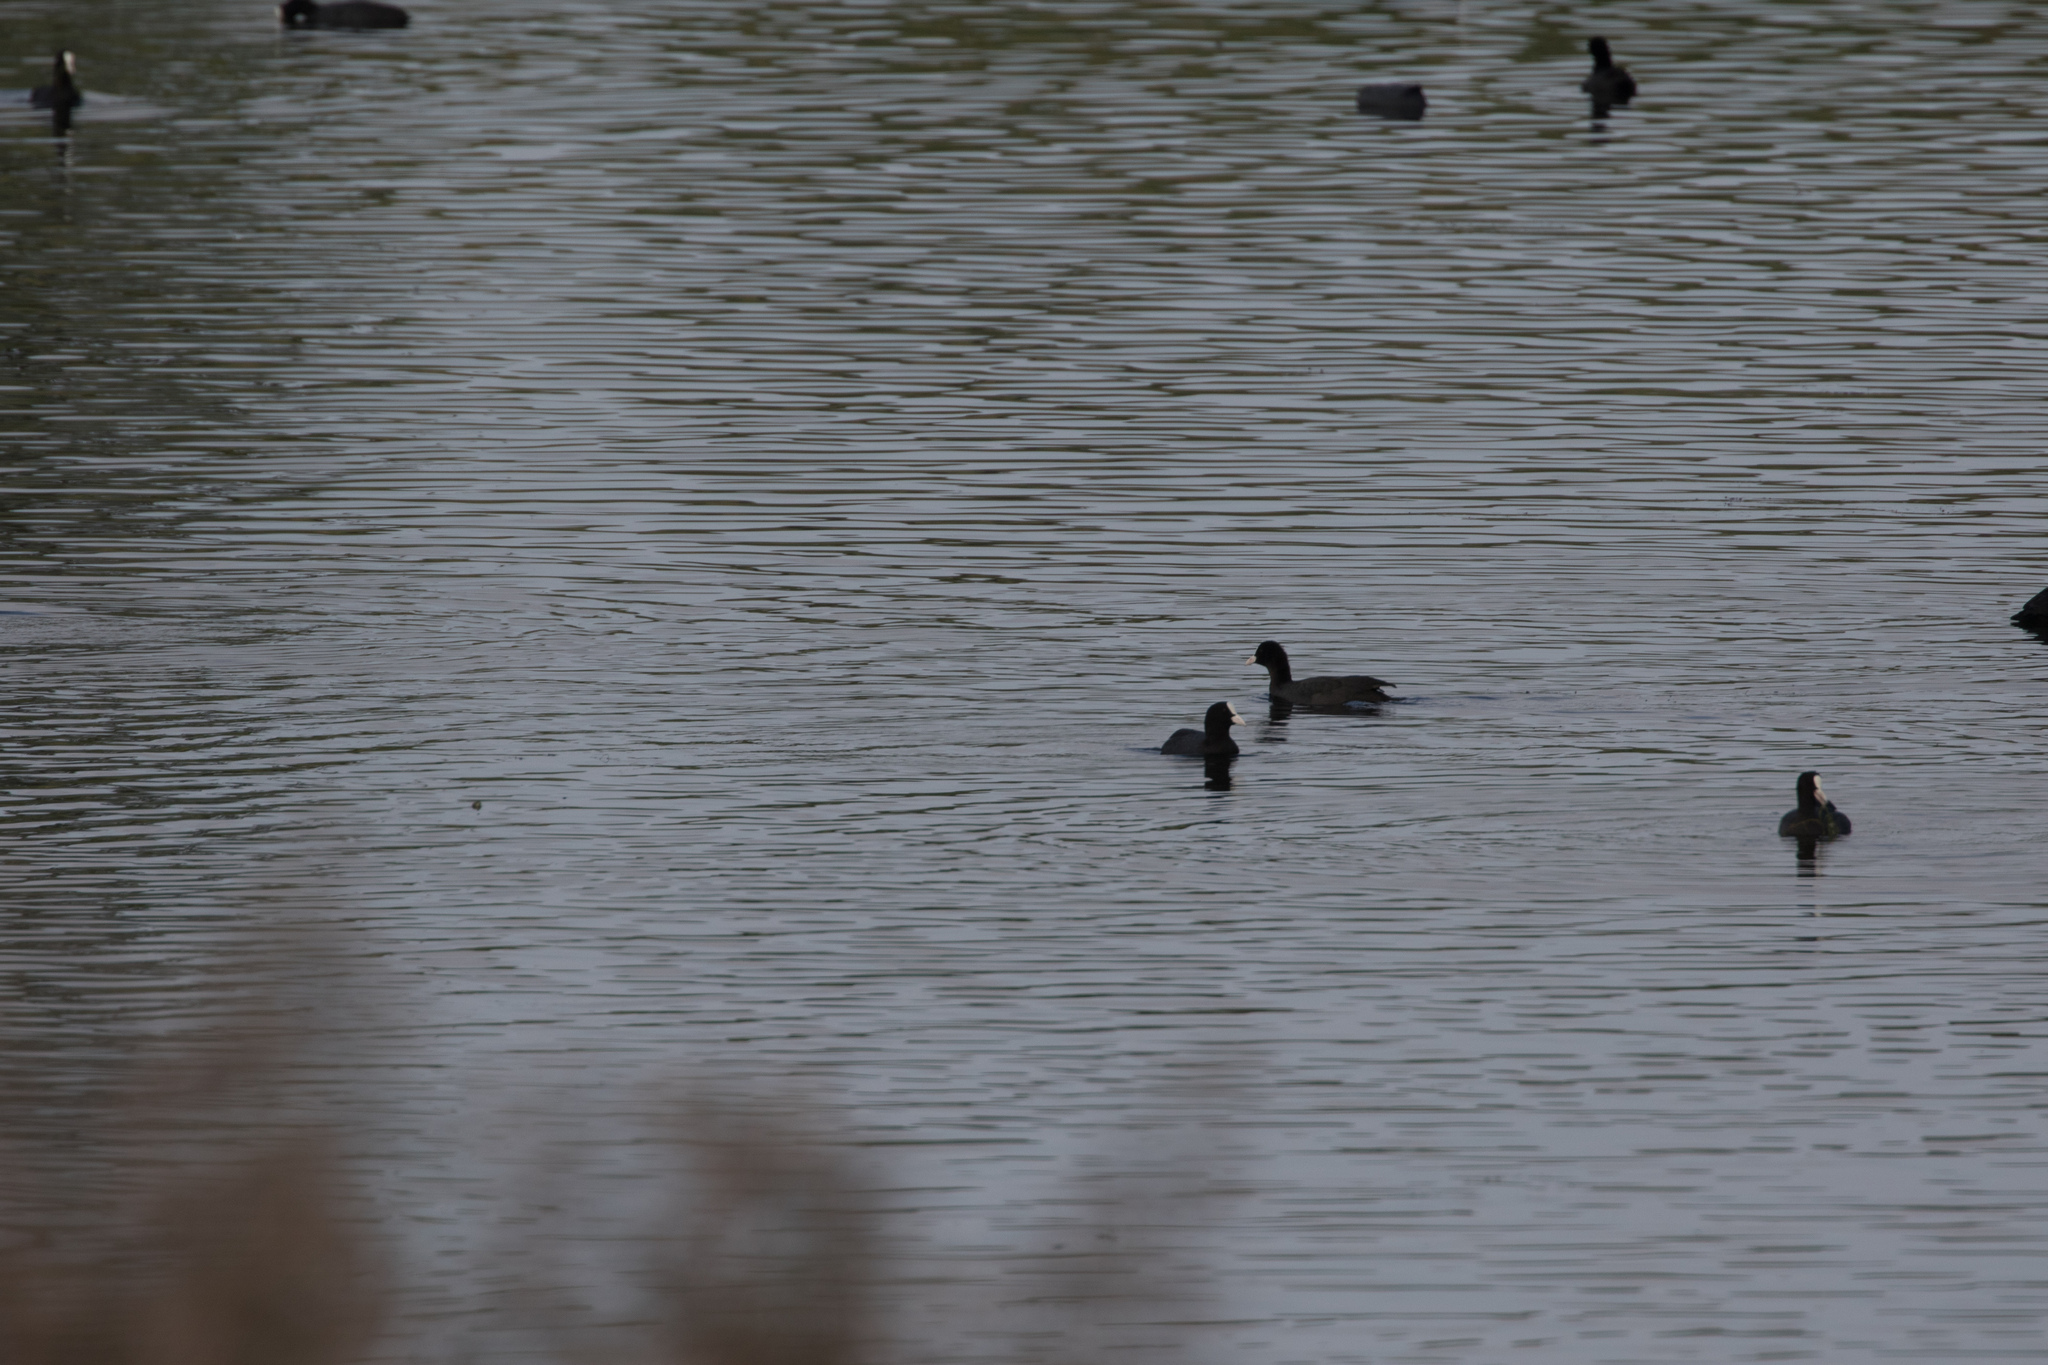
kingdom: Animalia
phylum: Chordata
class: Aves
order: Gruiformes
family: Rallidae
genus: Fulica
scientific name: Fulica atra
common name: Eurasian coot
